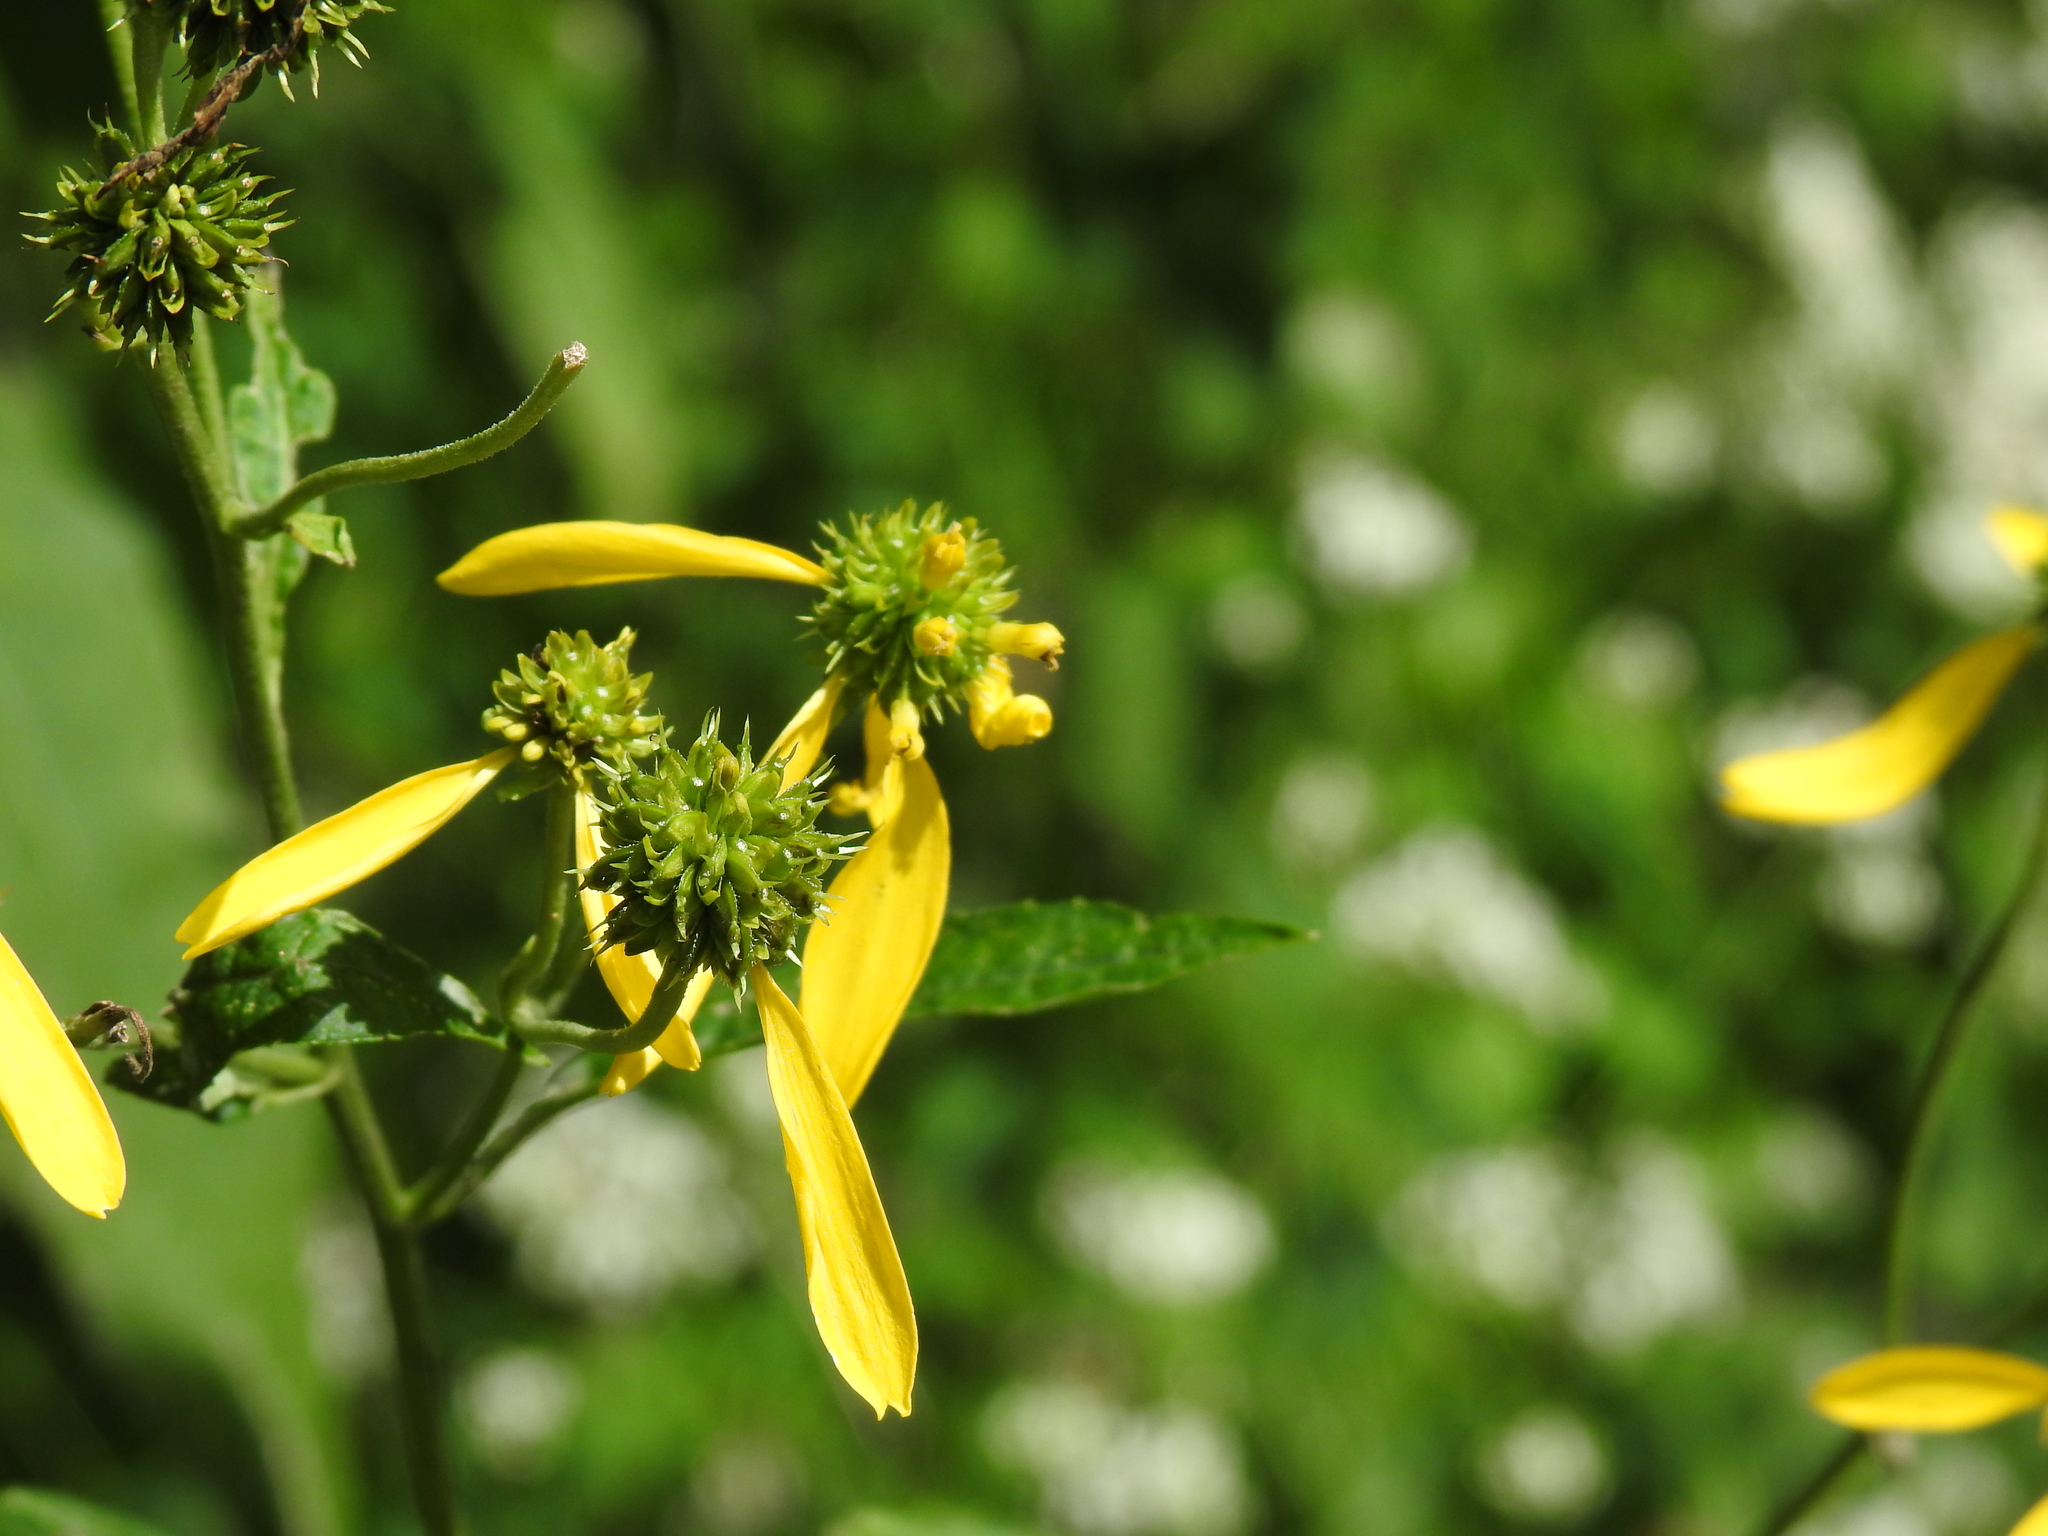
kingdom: Plantae
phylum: Tracheophyta
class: Magnoliopsida
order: Asterales
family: Asteraceae
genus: Verbesina
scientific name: Verbesina alternifolia
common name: Wingstem
